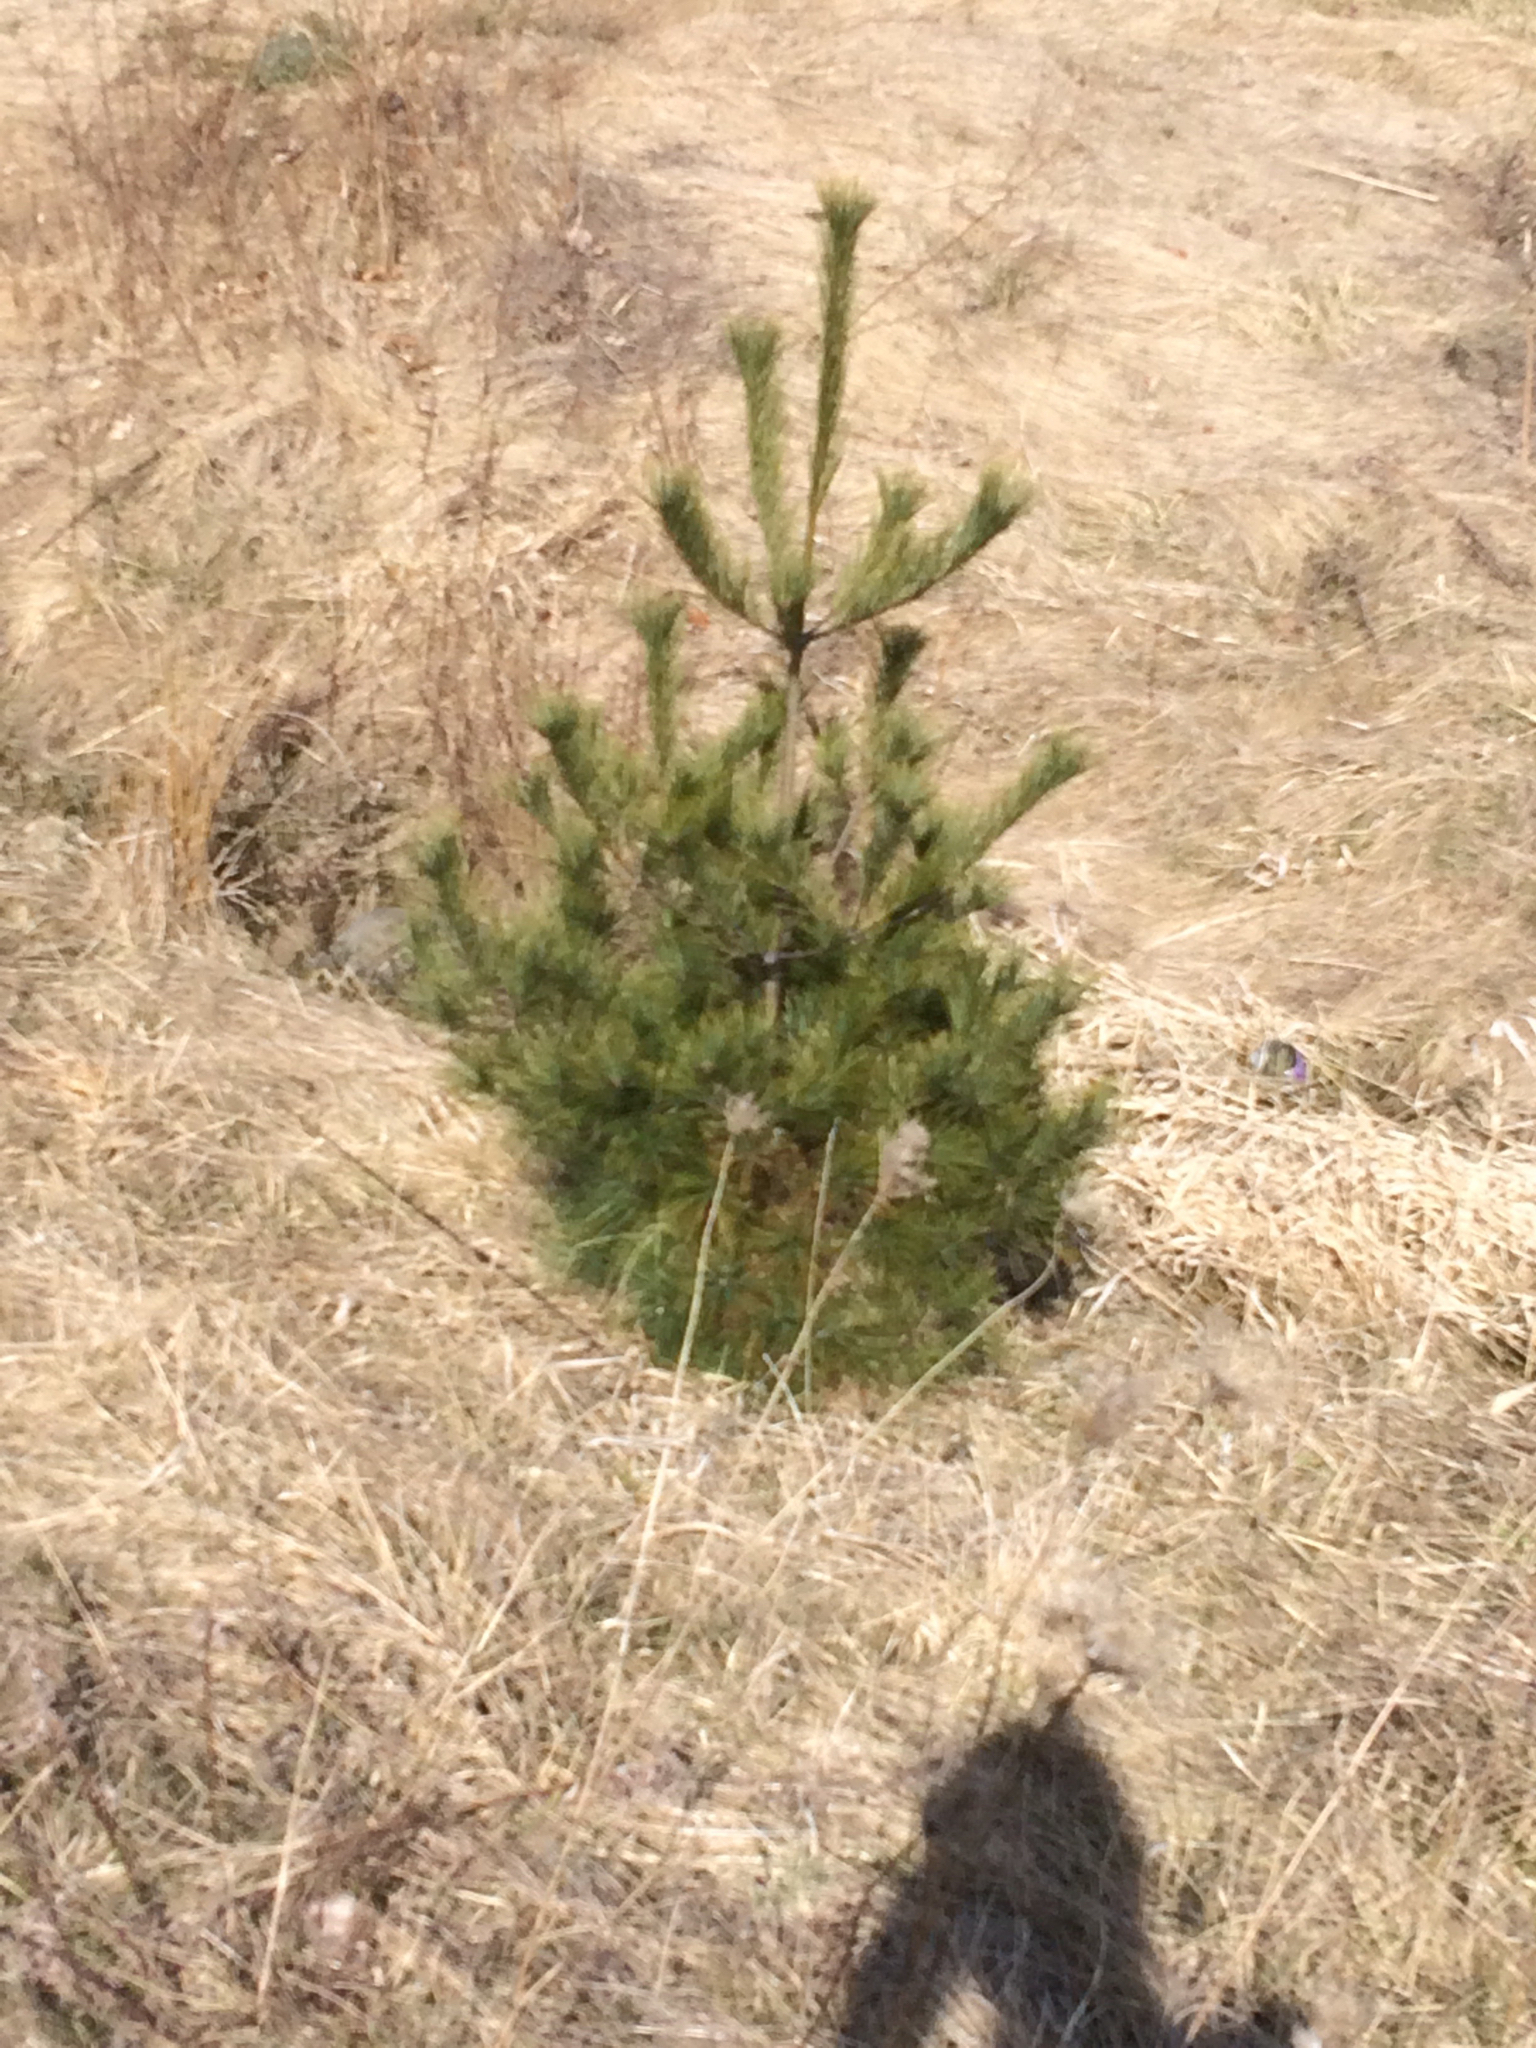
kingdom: Plantae
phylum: Tracheophyta
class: Pinopsida
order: Pinales
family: Pinaceae
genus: Pinus
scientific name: Pinus strobus
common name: Weymouth pine
